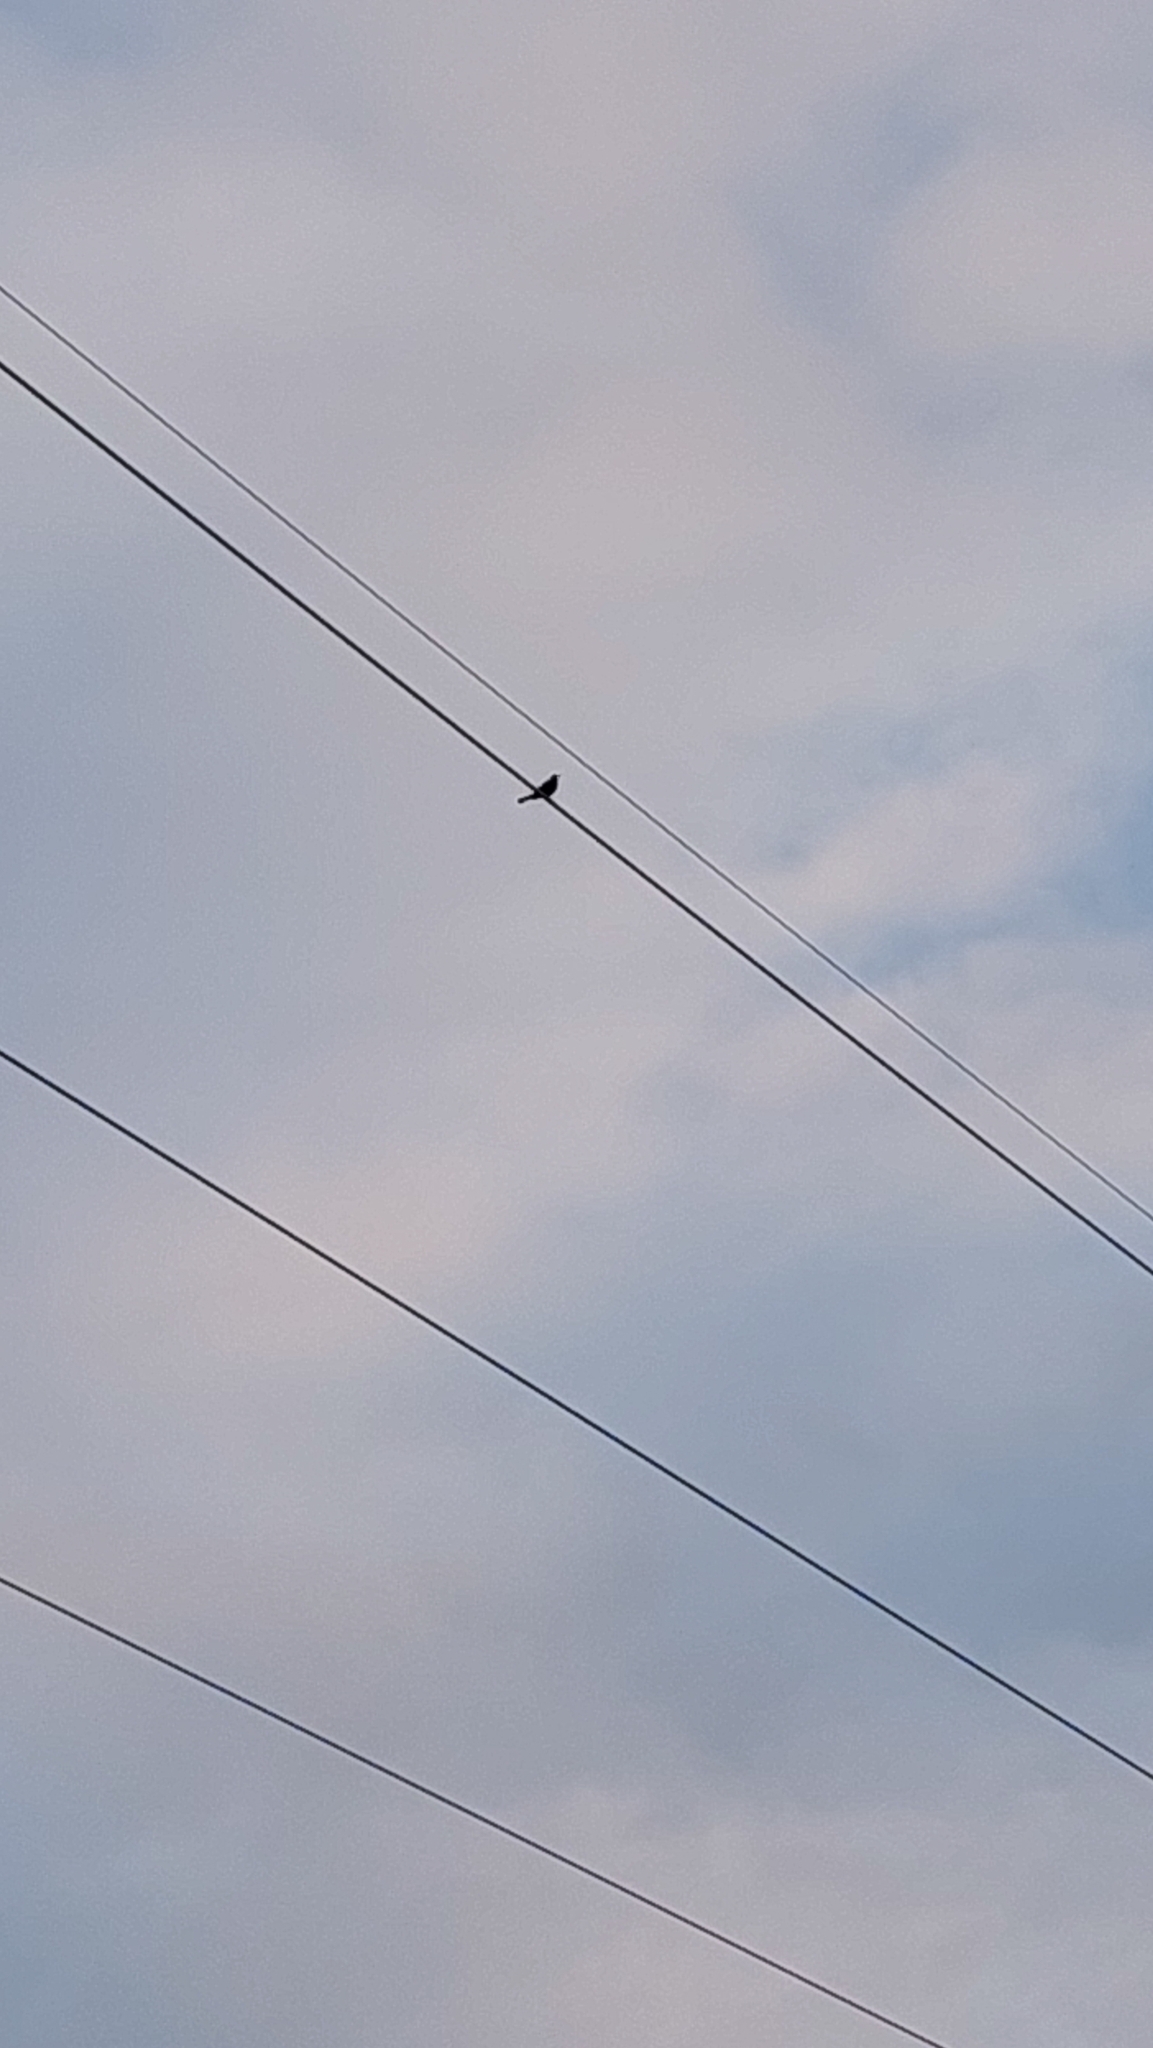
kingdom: Animalia
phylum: Chordata
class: Aves
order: Passeriformes
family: Turdidae
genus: Turdus
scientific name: Turdus merula
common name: Common blackbird
